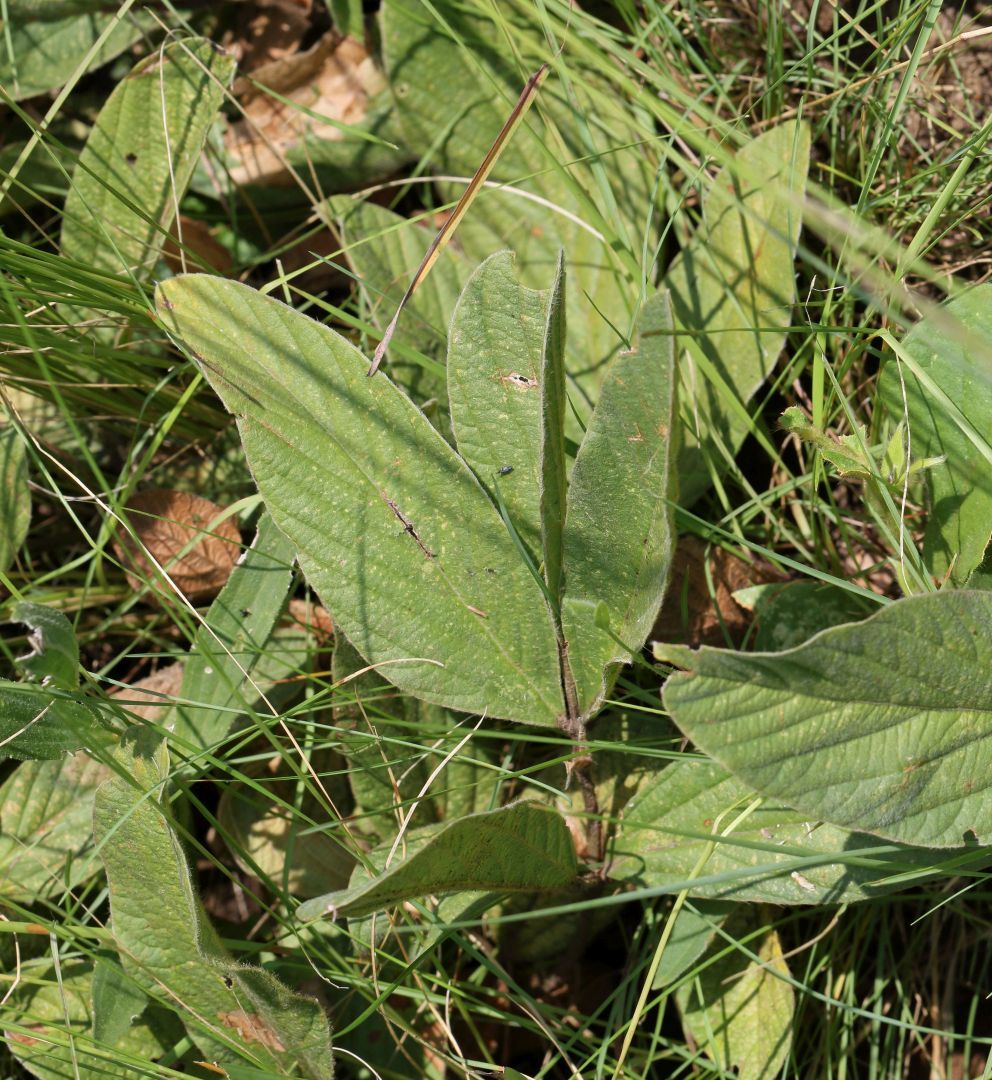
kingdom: Plantae
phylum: Tracheophyta
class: Magnoliopsida
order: Fabales
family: Fabaceae
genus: Eriosema
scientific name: Eriosema distinctum
